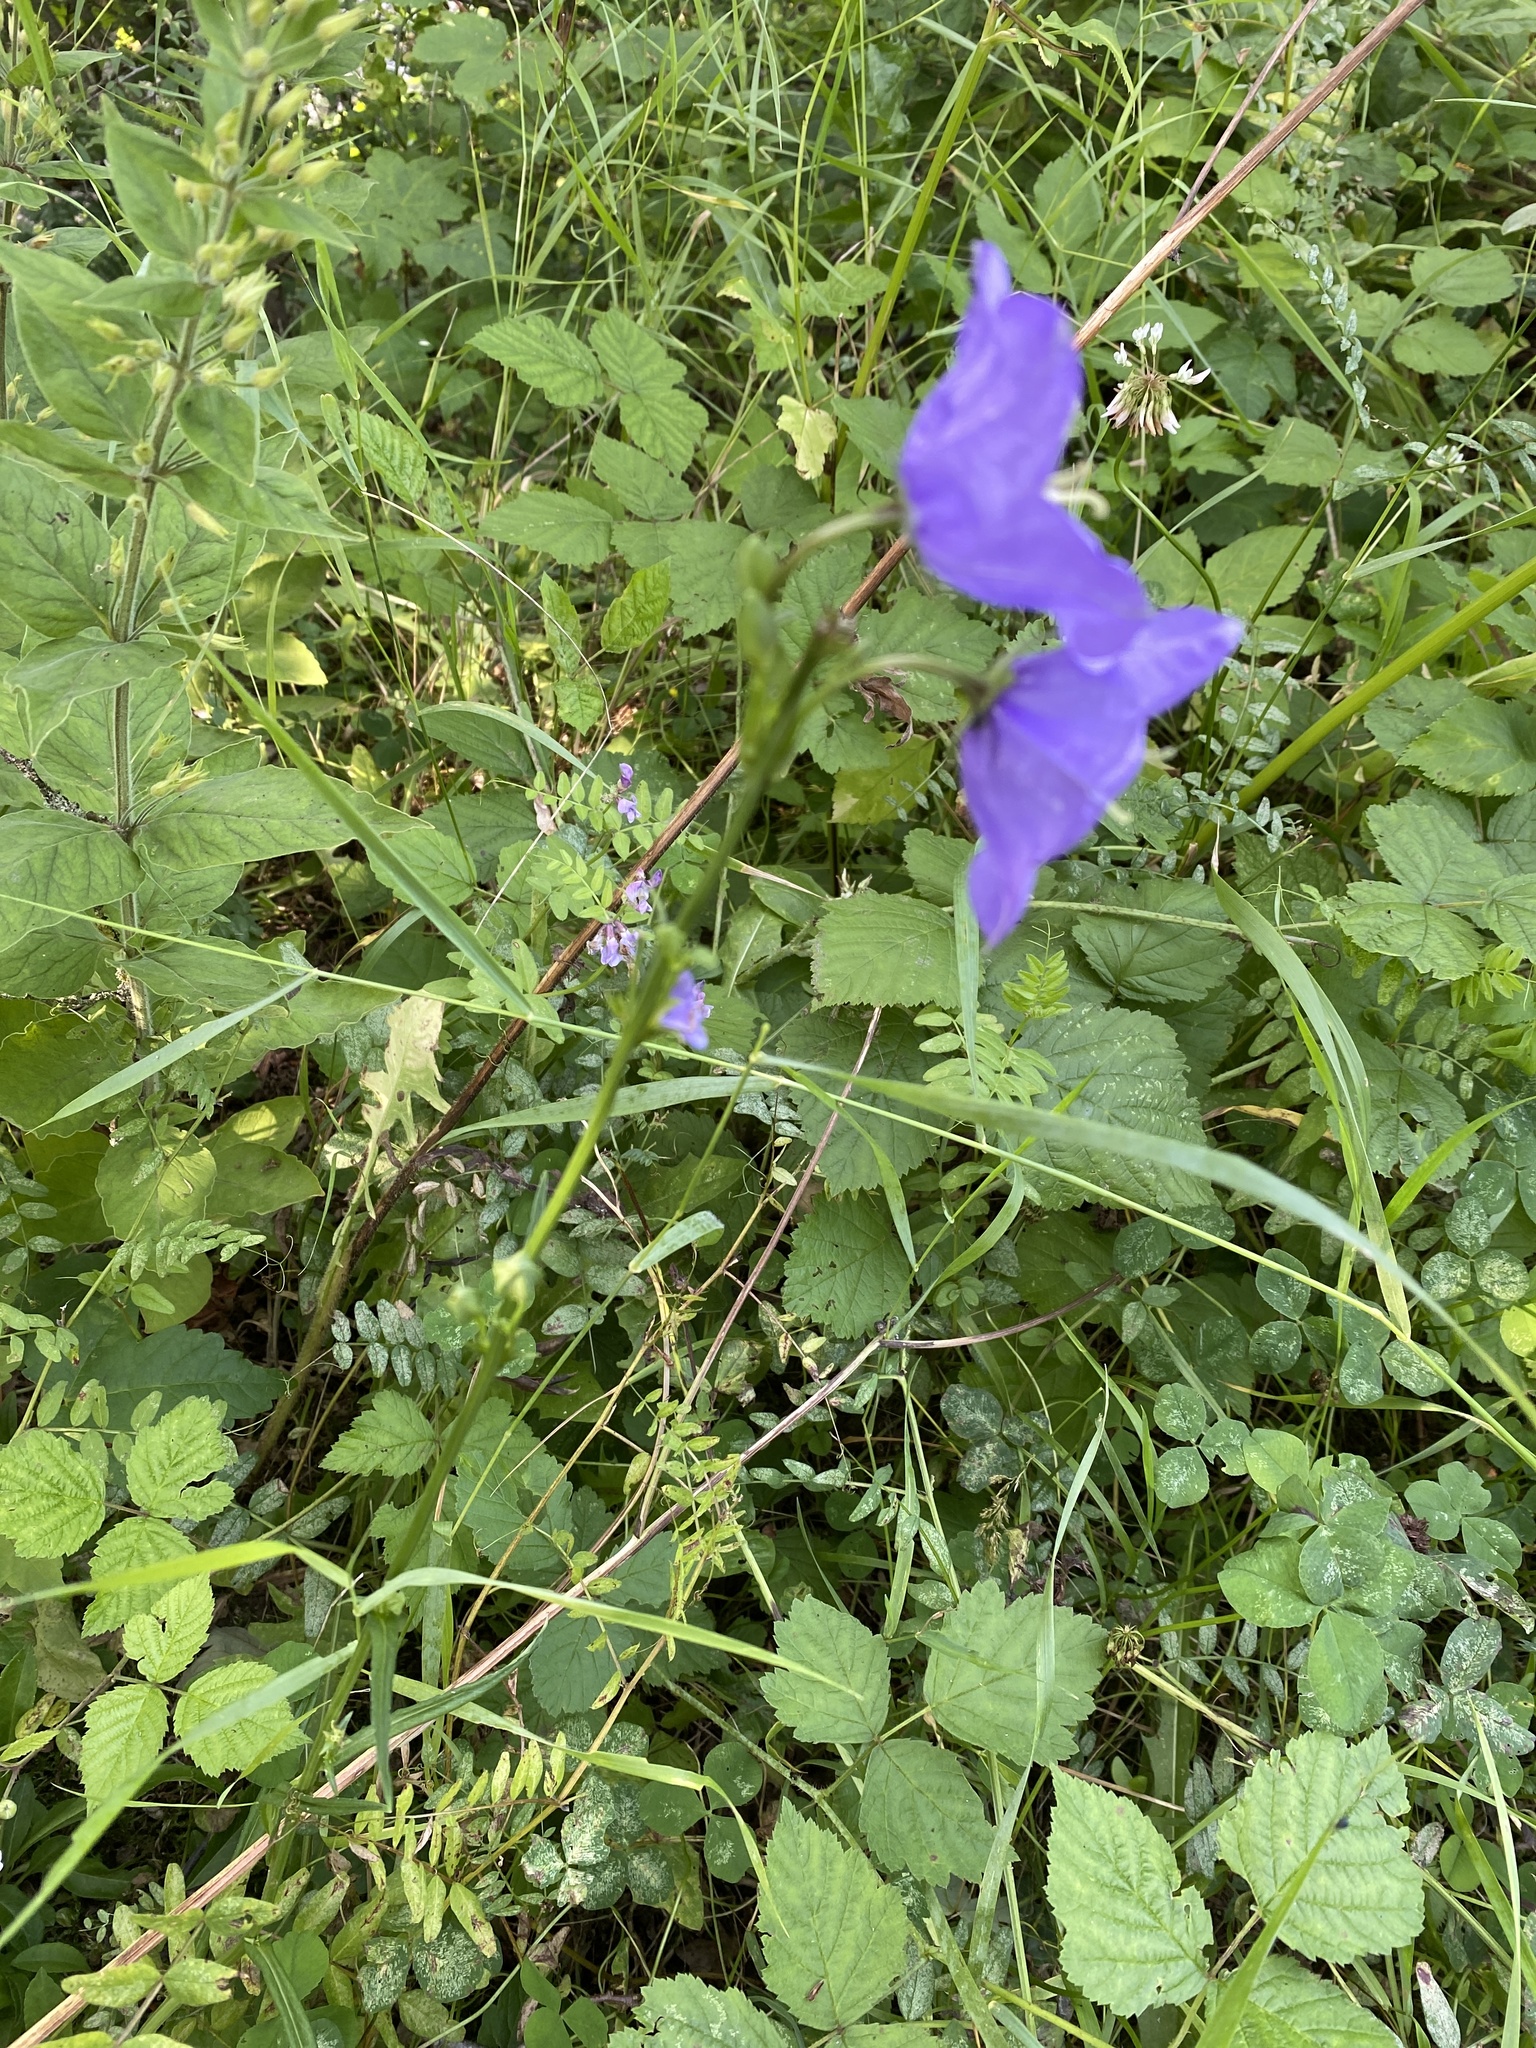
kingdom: Plantae
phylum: Tracheophyta
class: Magnoliopsida
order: Asterales
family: Campanulaceae
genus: Campanula
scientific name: Campanula persicifolia
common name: Peach-leaved bellflower
